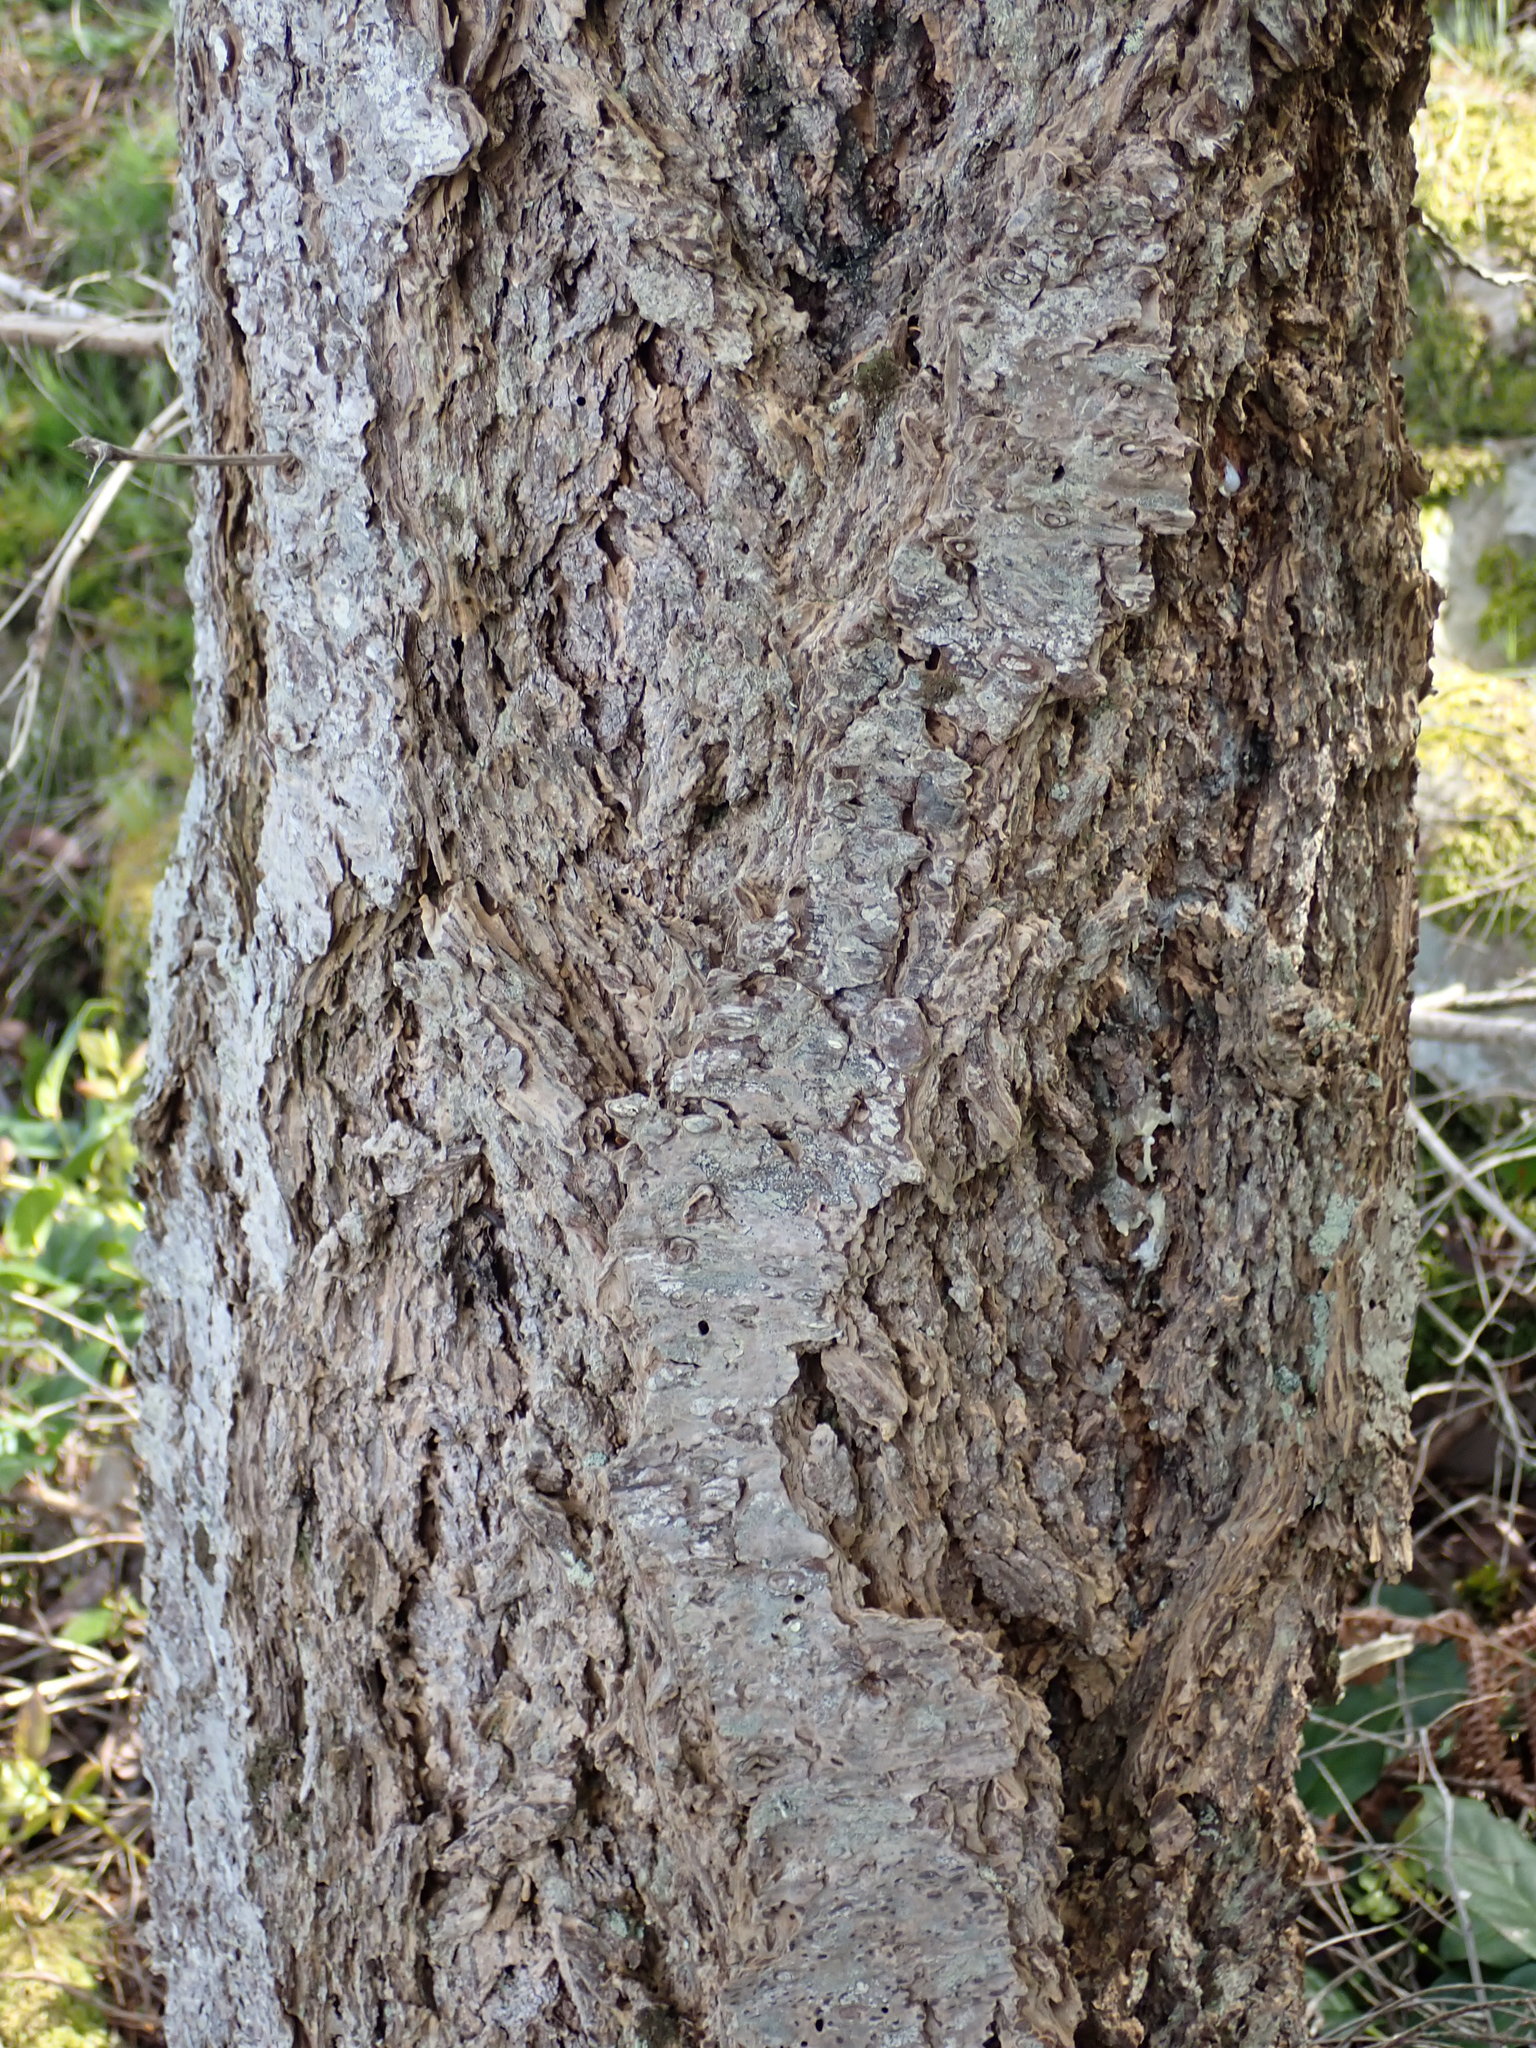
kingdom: Plantae
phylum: Tracheophyta
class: Pinopsida
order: Pinales
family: Pinaceae
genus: Pseudotsuga
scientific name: Pseudotsuga menziesii
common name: Douglas fir
